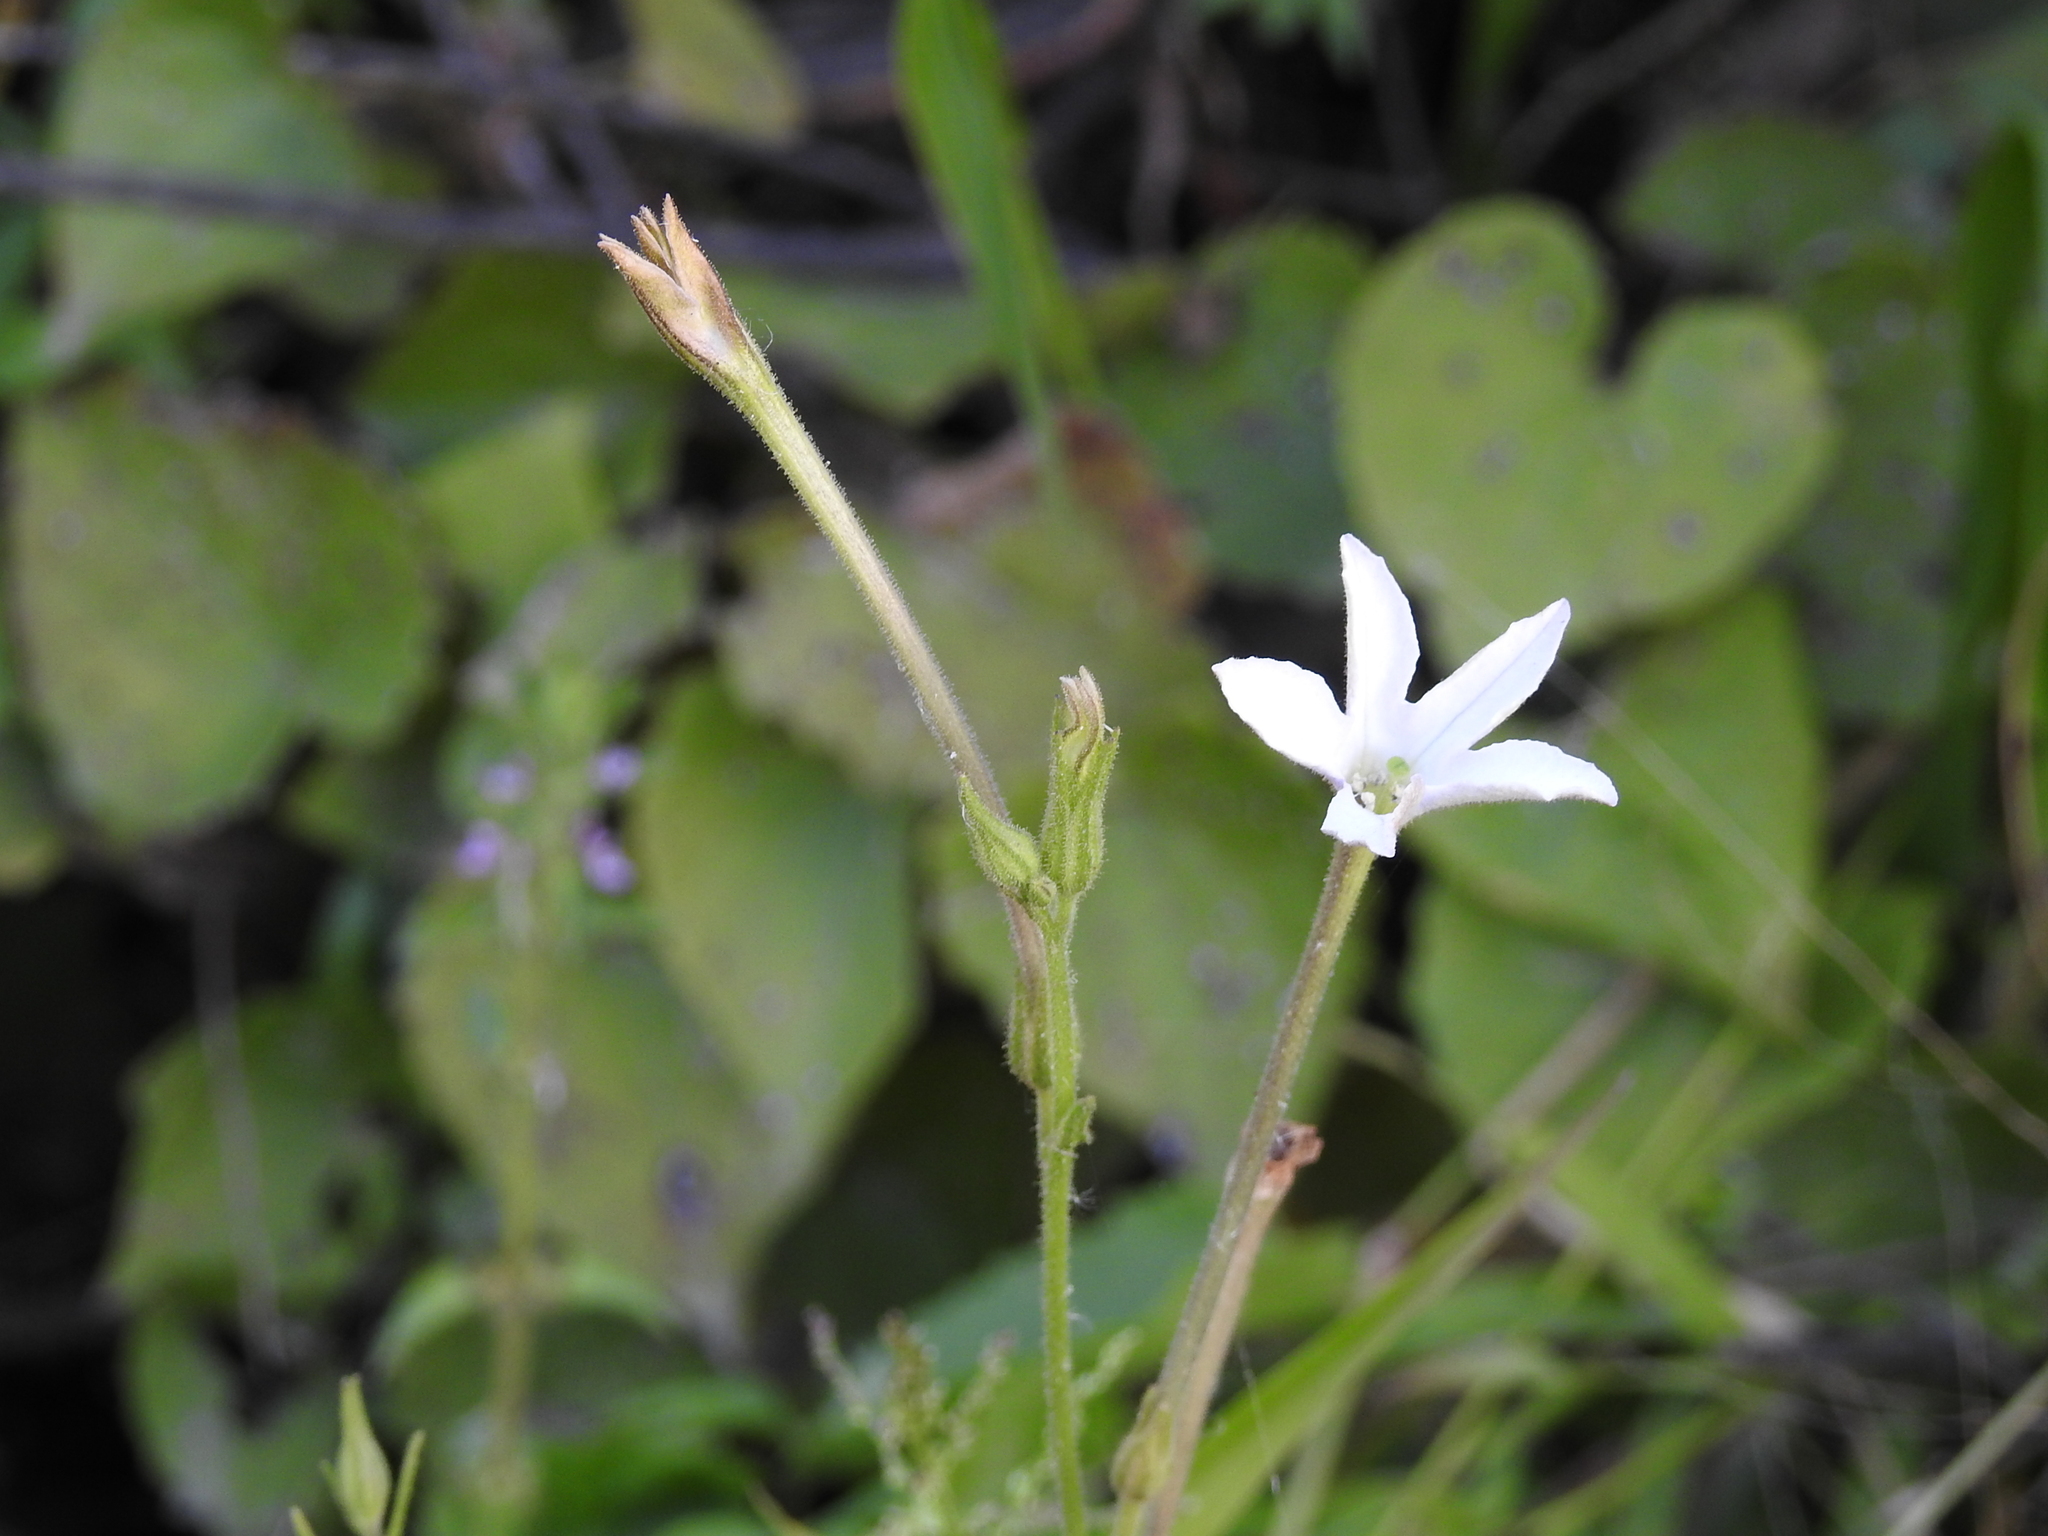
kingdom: Plantae
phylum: Tracheophyta
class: Magnoliopsida
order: Solanales
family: Solanaceae
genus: Nicotiana
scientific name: Nicotiana longiflora
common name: Long-flowered tobacco
